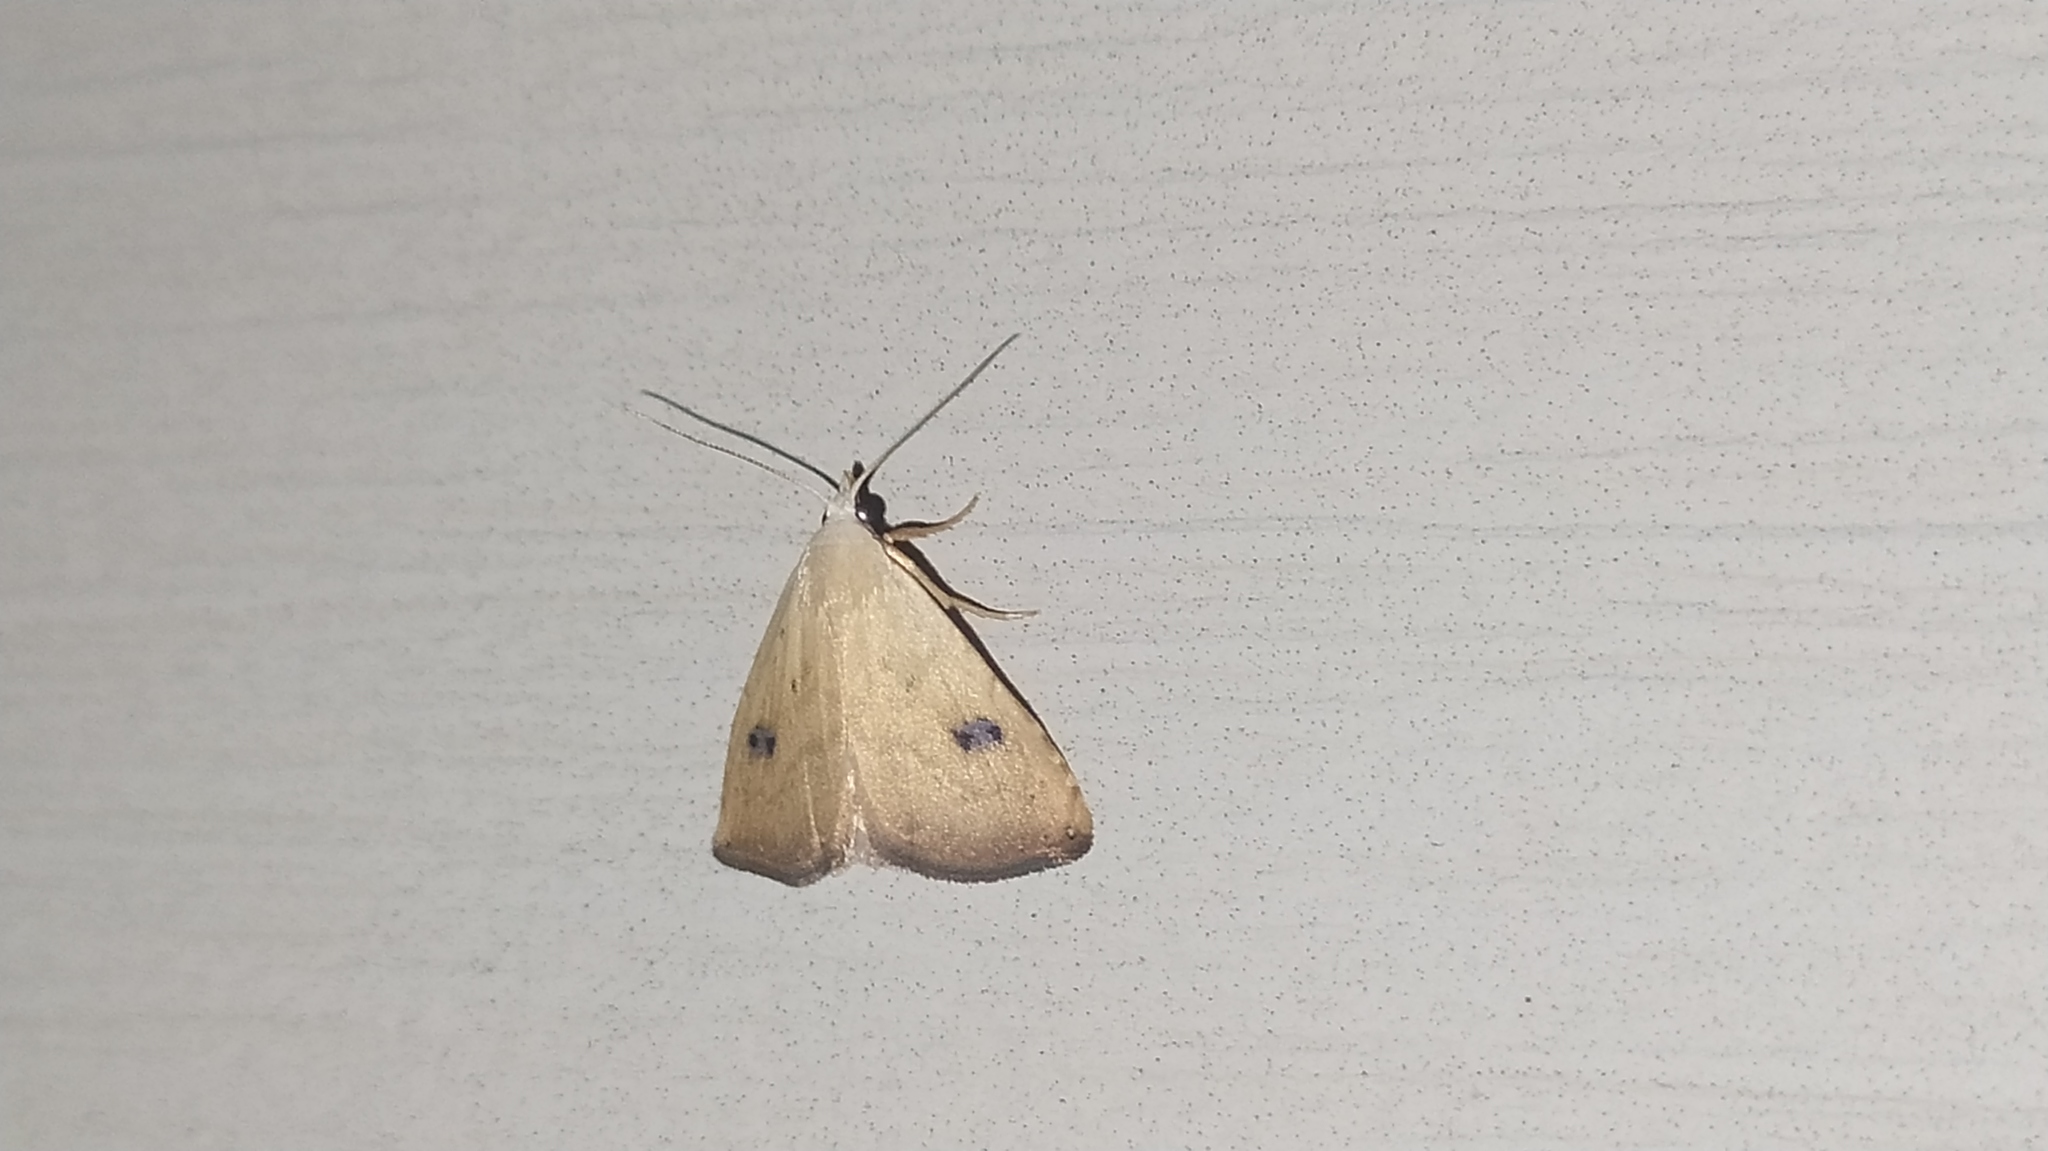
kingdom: Animalia
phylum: Arthropoda
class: Insecta
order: Lepidoptera
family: Erebidae
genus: Rivula
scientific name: Rivula sericealis
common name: Straw dot
